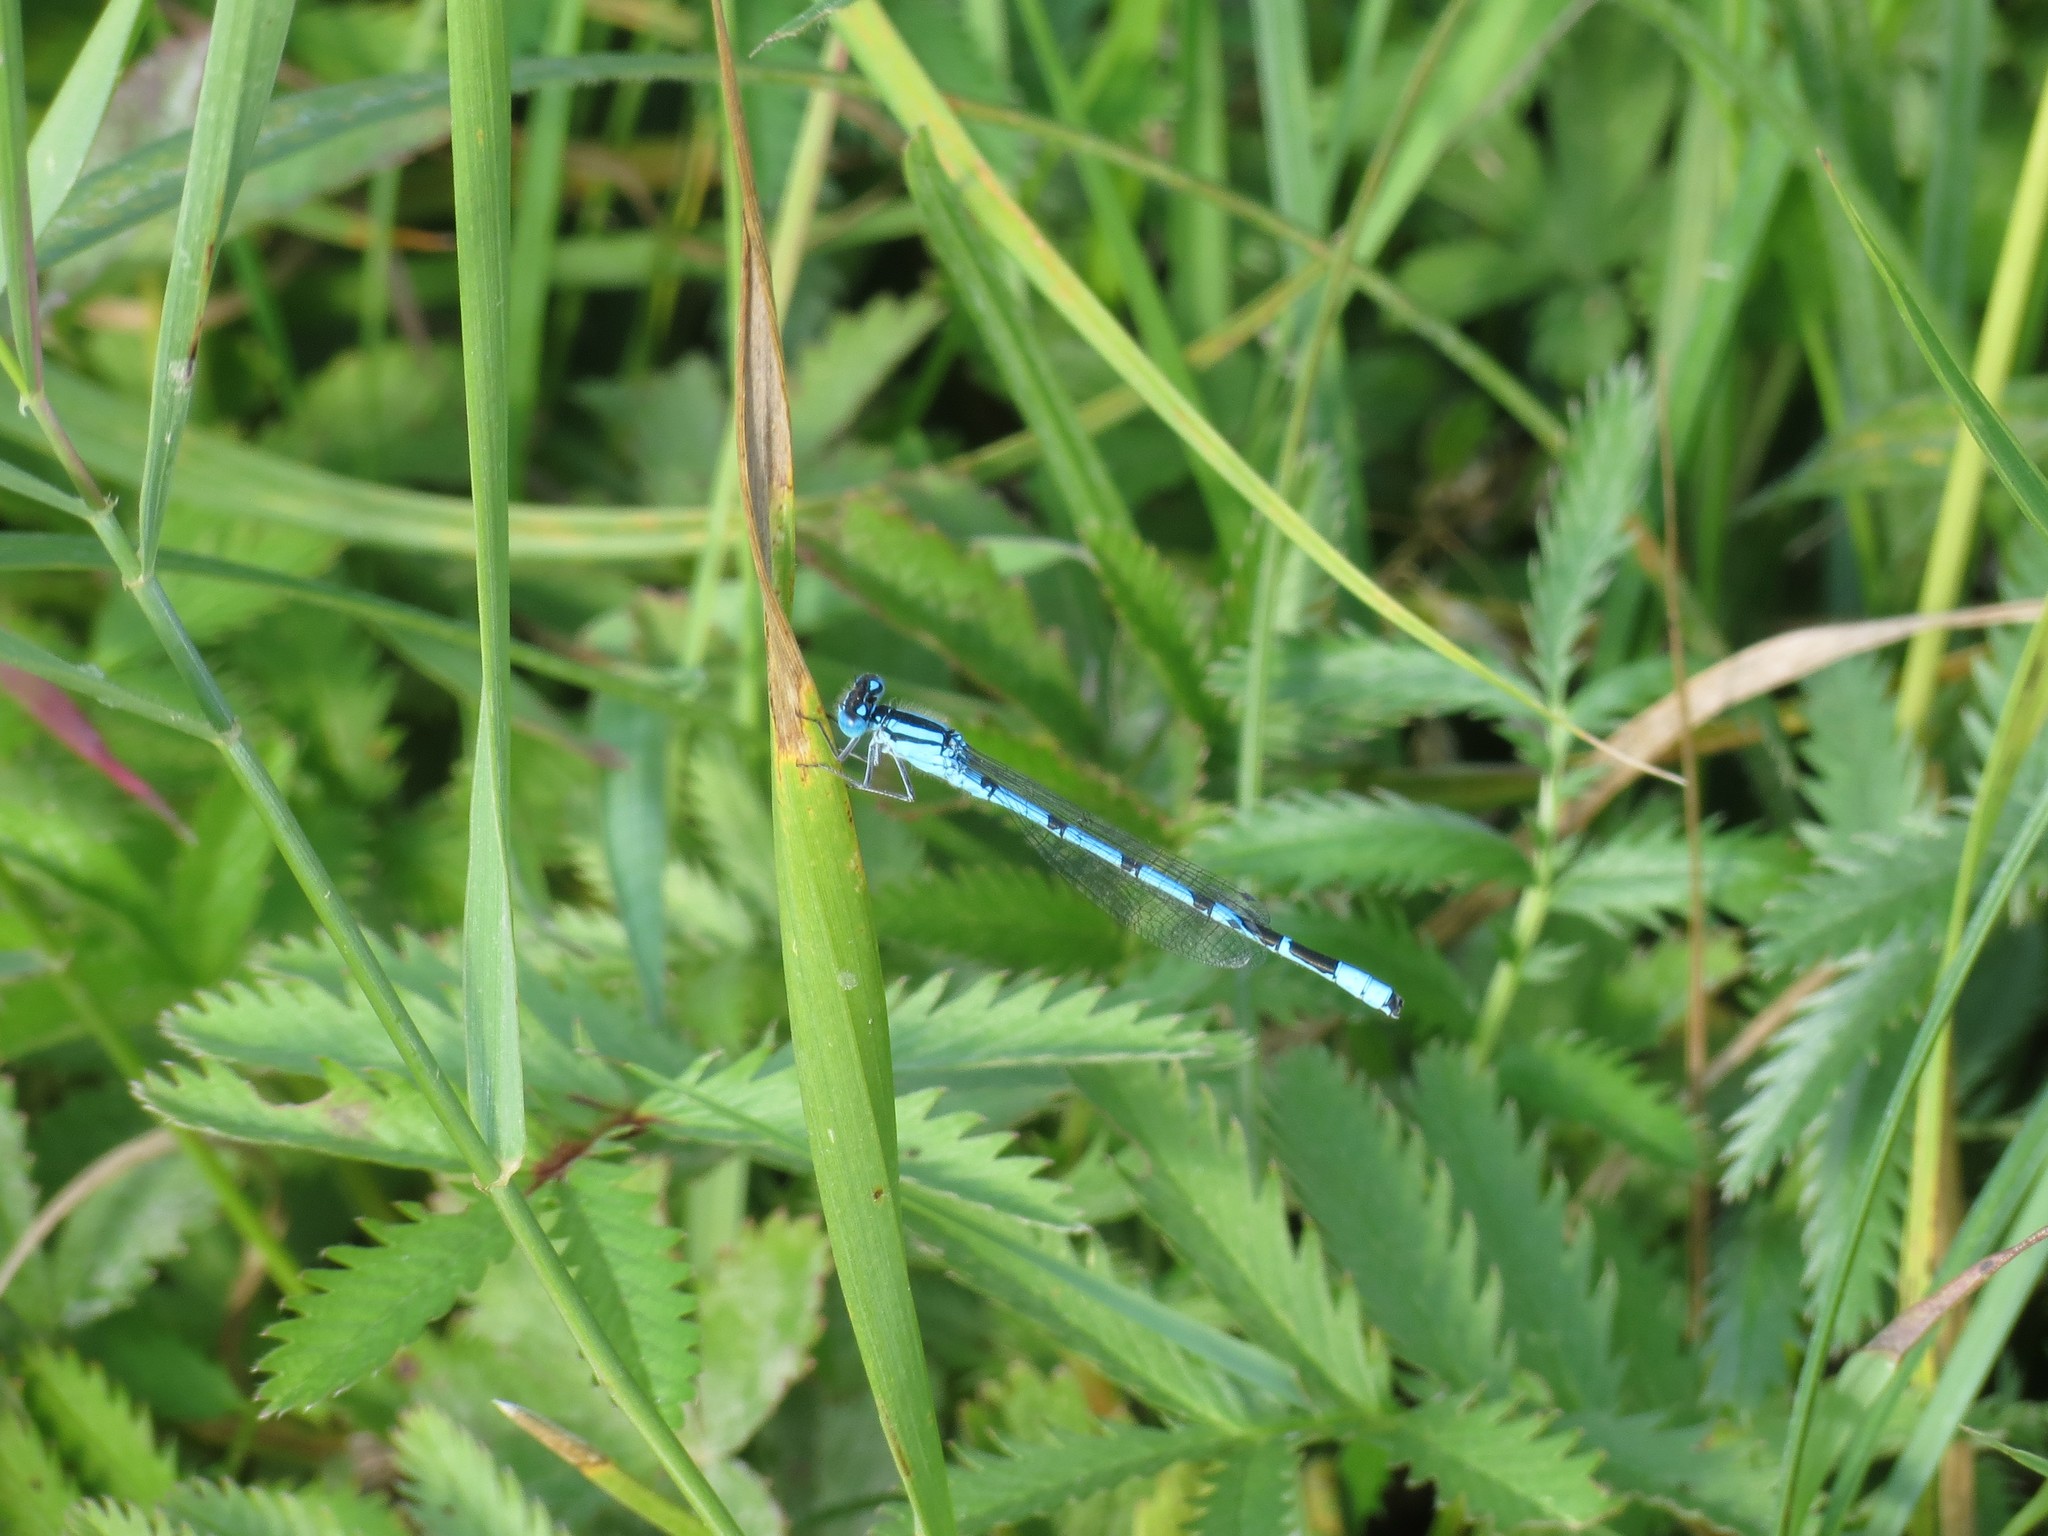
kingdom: Animalia
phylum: Arthropoda
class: Insecta
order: Odonata
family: Coenagrionidae
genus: Enallagma
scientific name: Enallagma cyathigerum
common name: Common blue damselfly
